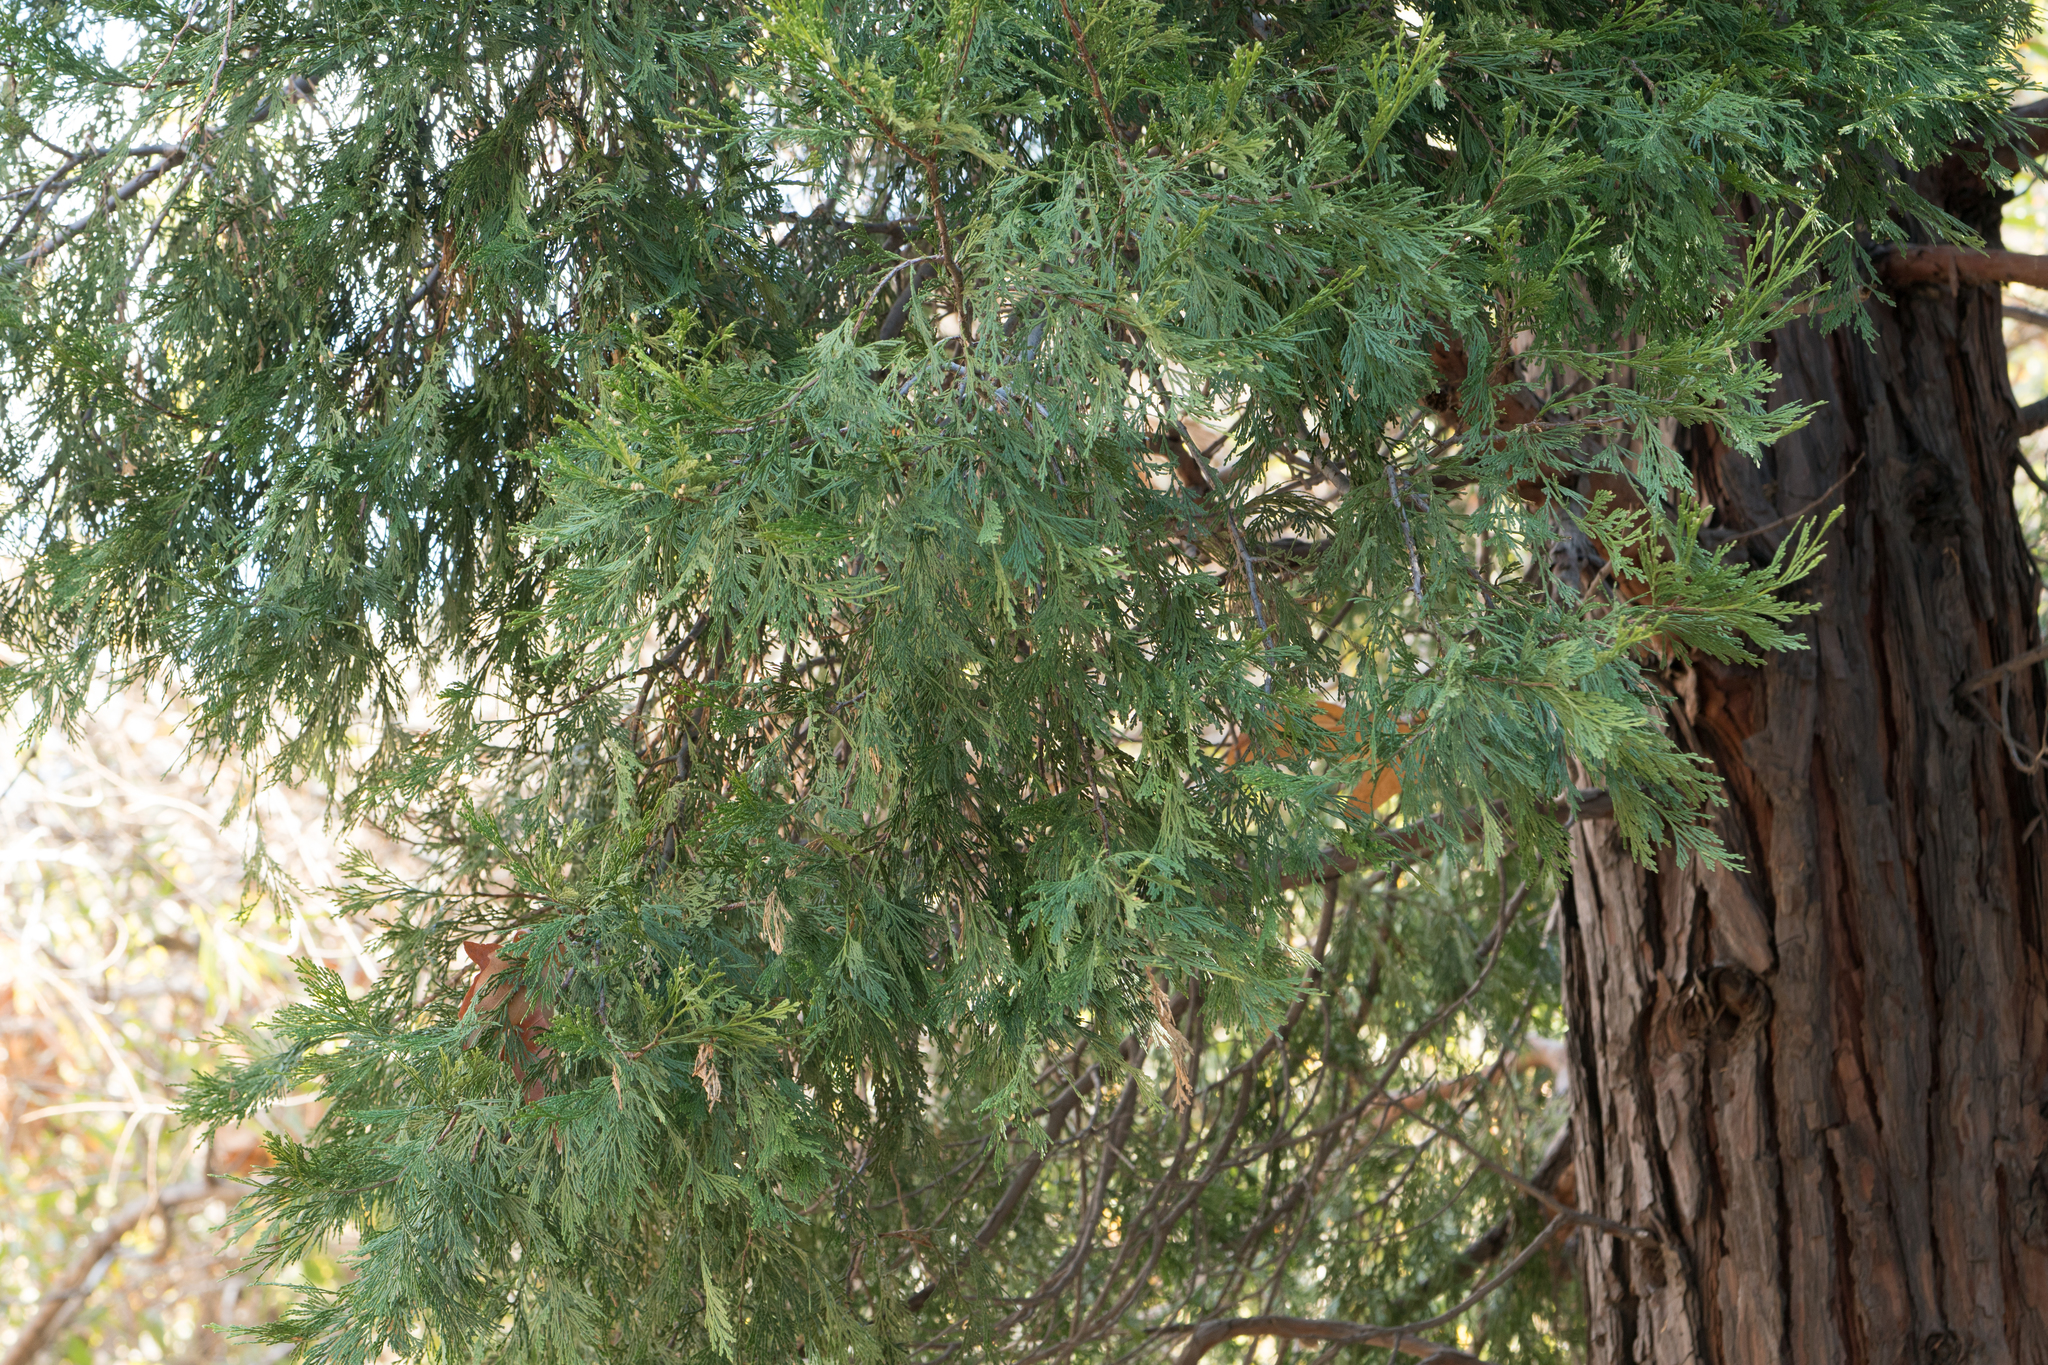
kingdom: Plantae
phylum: Tracheophyta
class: Pinopsida
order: Pinales
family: Cupressaceae
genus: Calocedrus
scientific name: Calocedrus decurrens
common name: Californian incense-cedar
